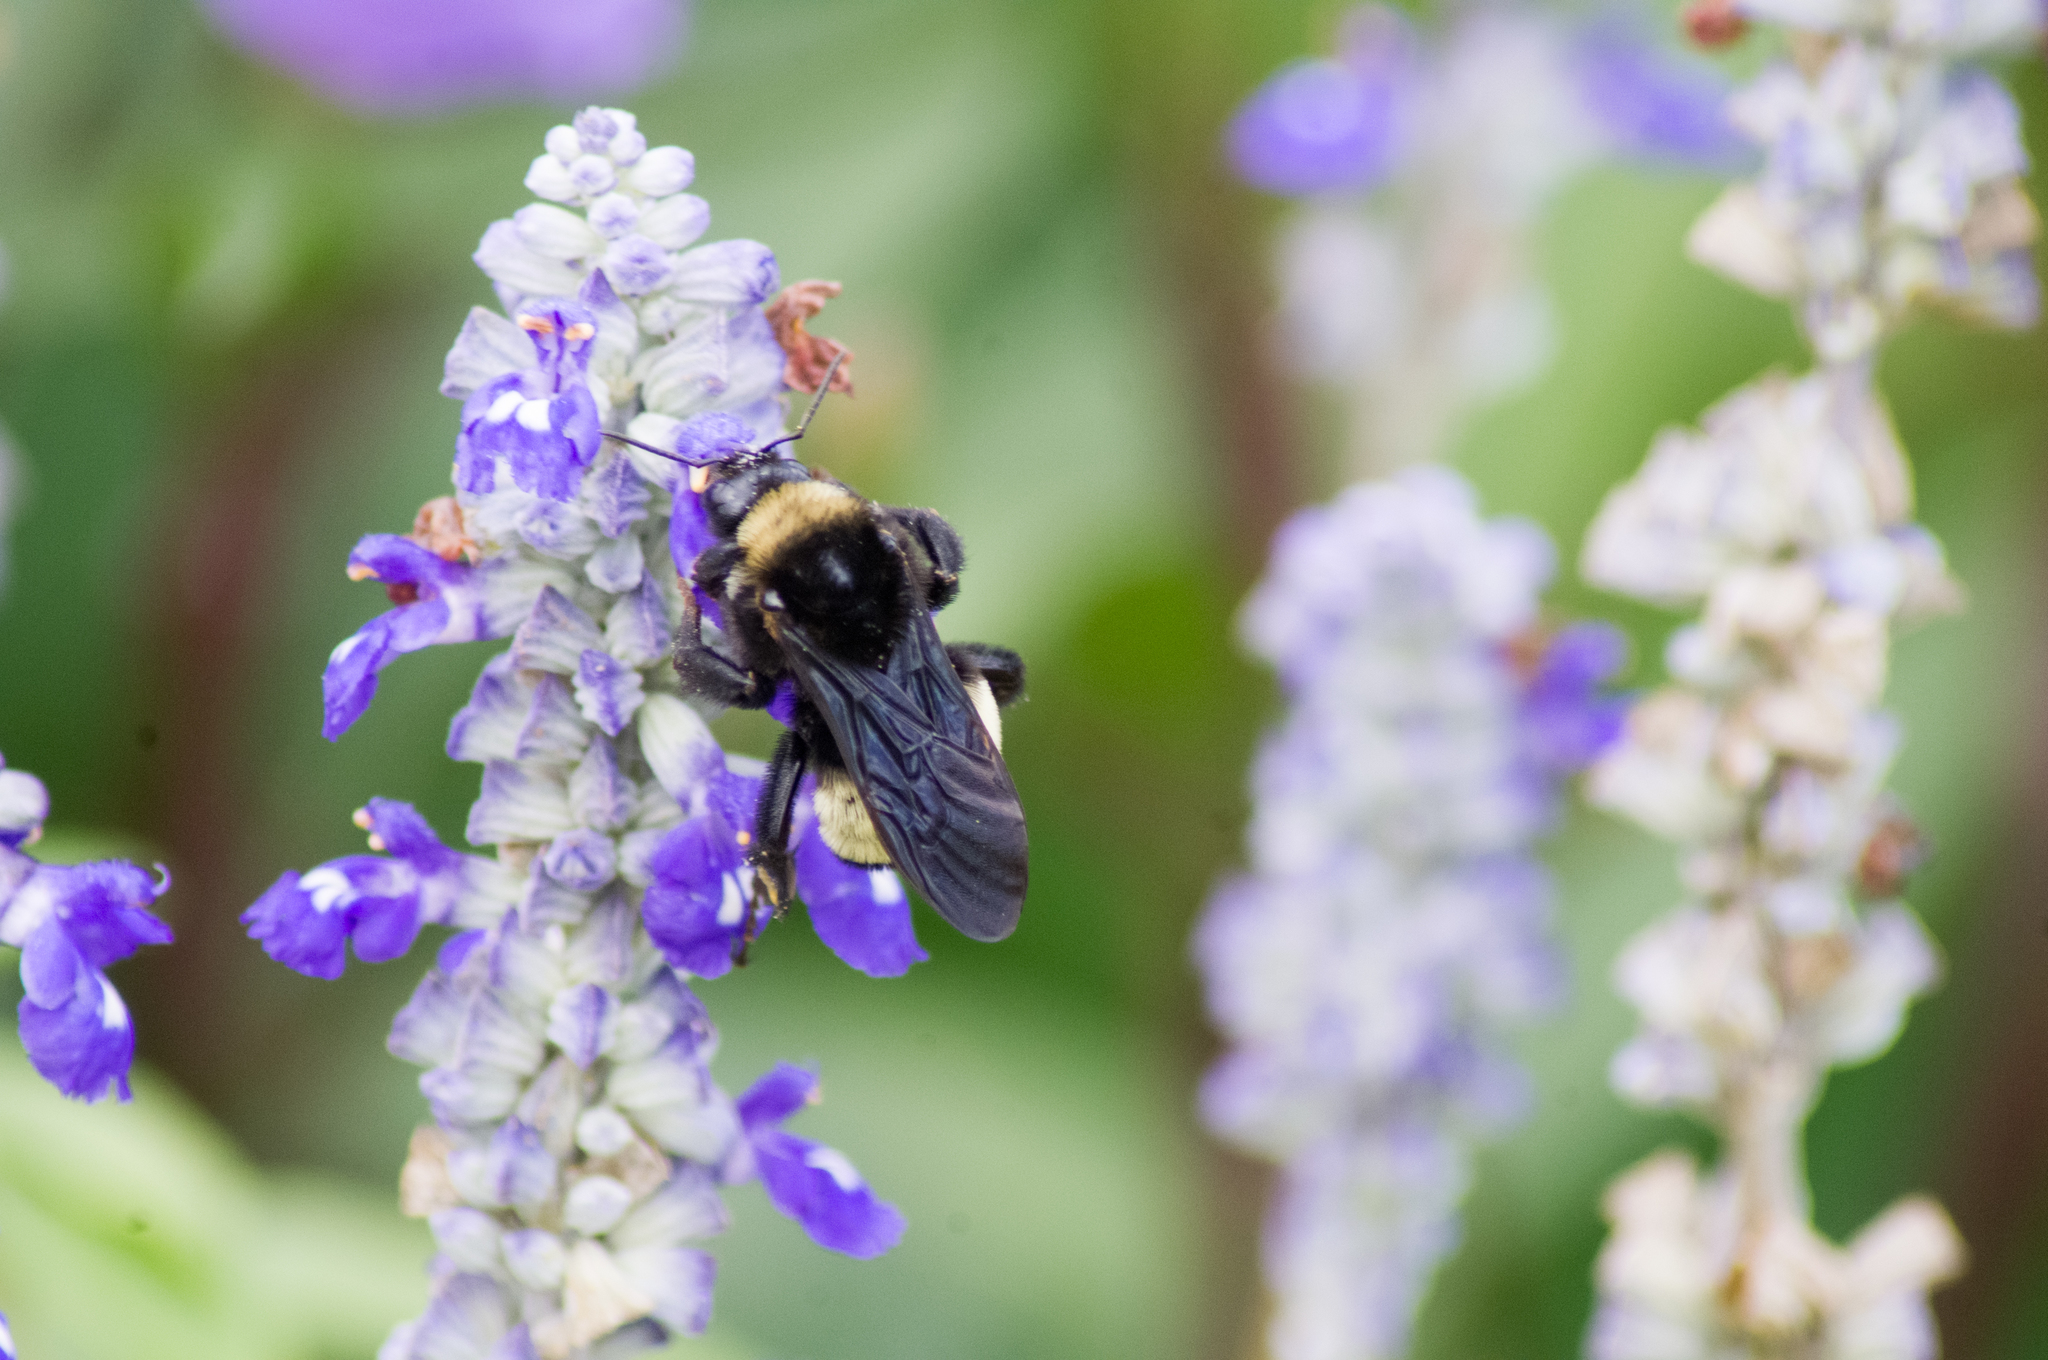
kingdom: Animalia
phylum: Arthropoda
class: Insecta
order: Hymenoptera
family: Apidae
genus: Bombus
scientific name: Bombus pensylvanicus
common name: Bumble bee
